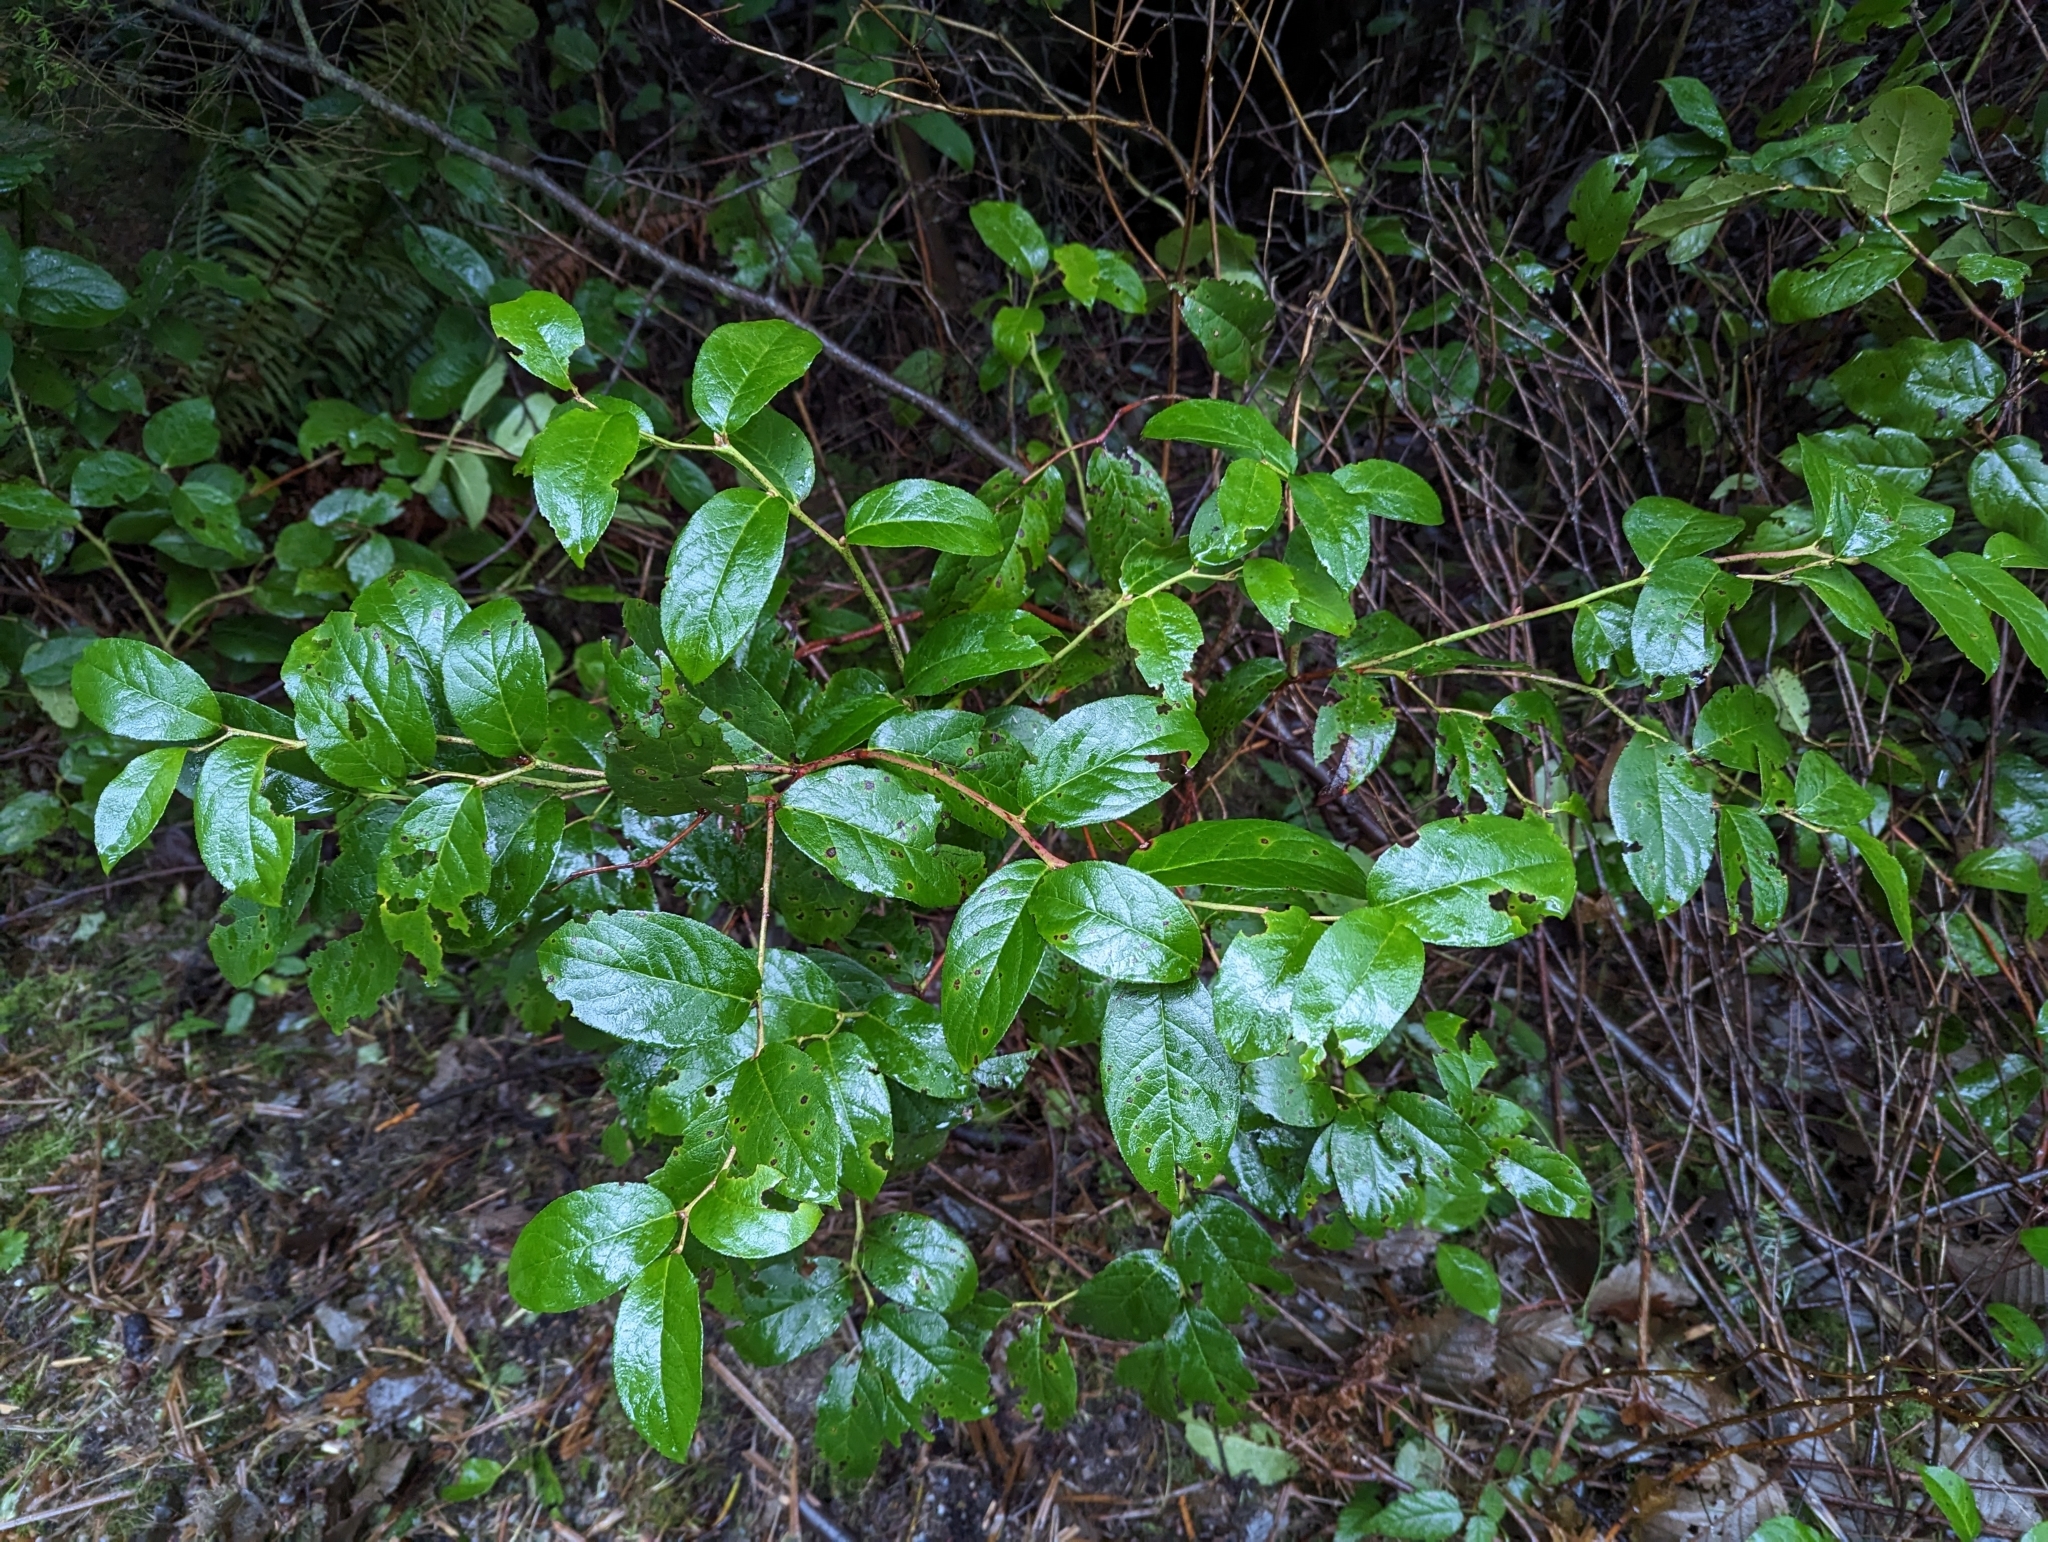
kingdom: Plantae
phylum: Tracheophyta
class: Magnoliopsida
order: Ericales
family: Ericaceae
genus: Gaultheria
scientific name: Gaultheria shallon
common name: Shallon
